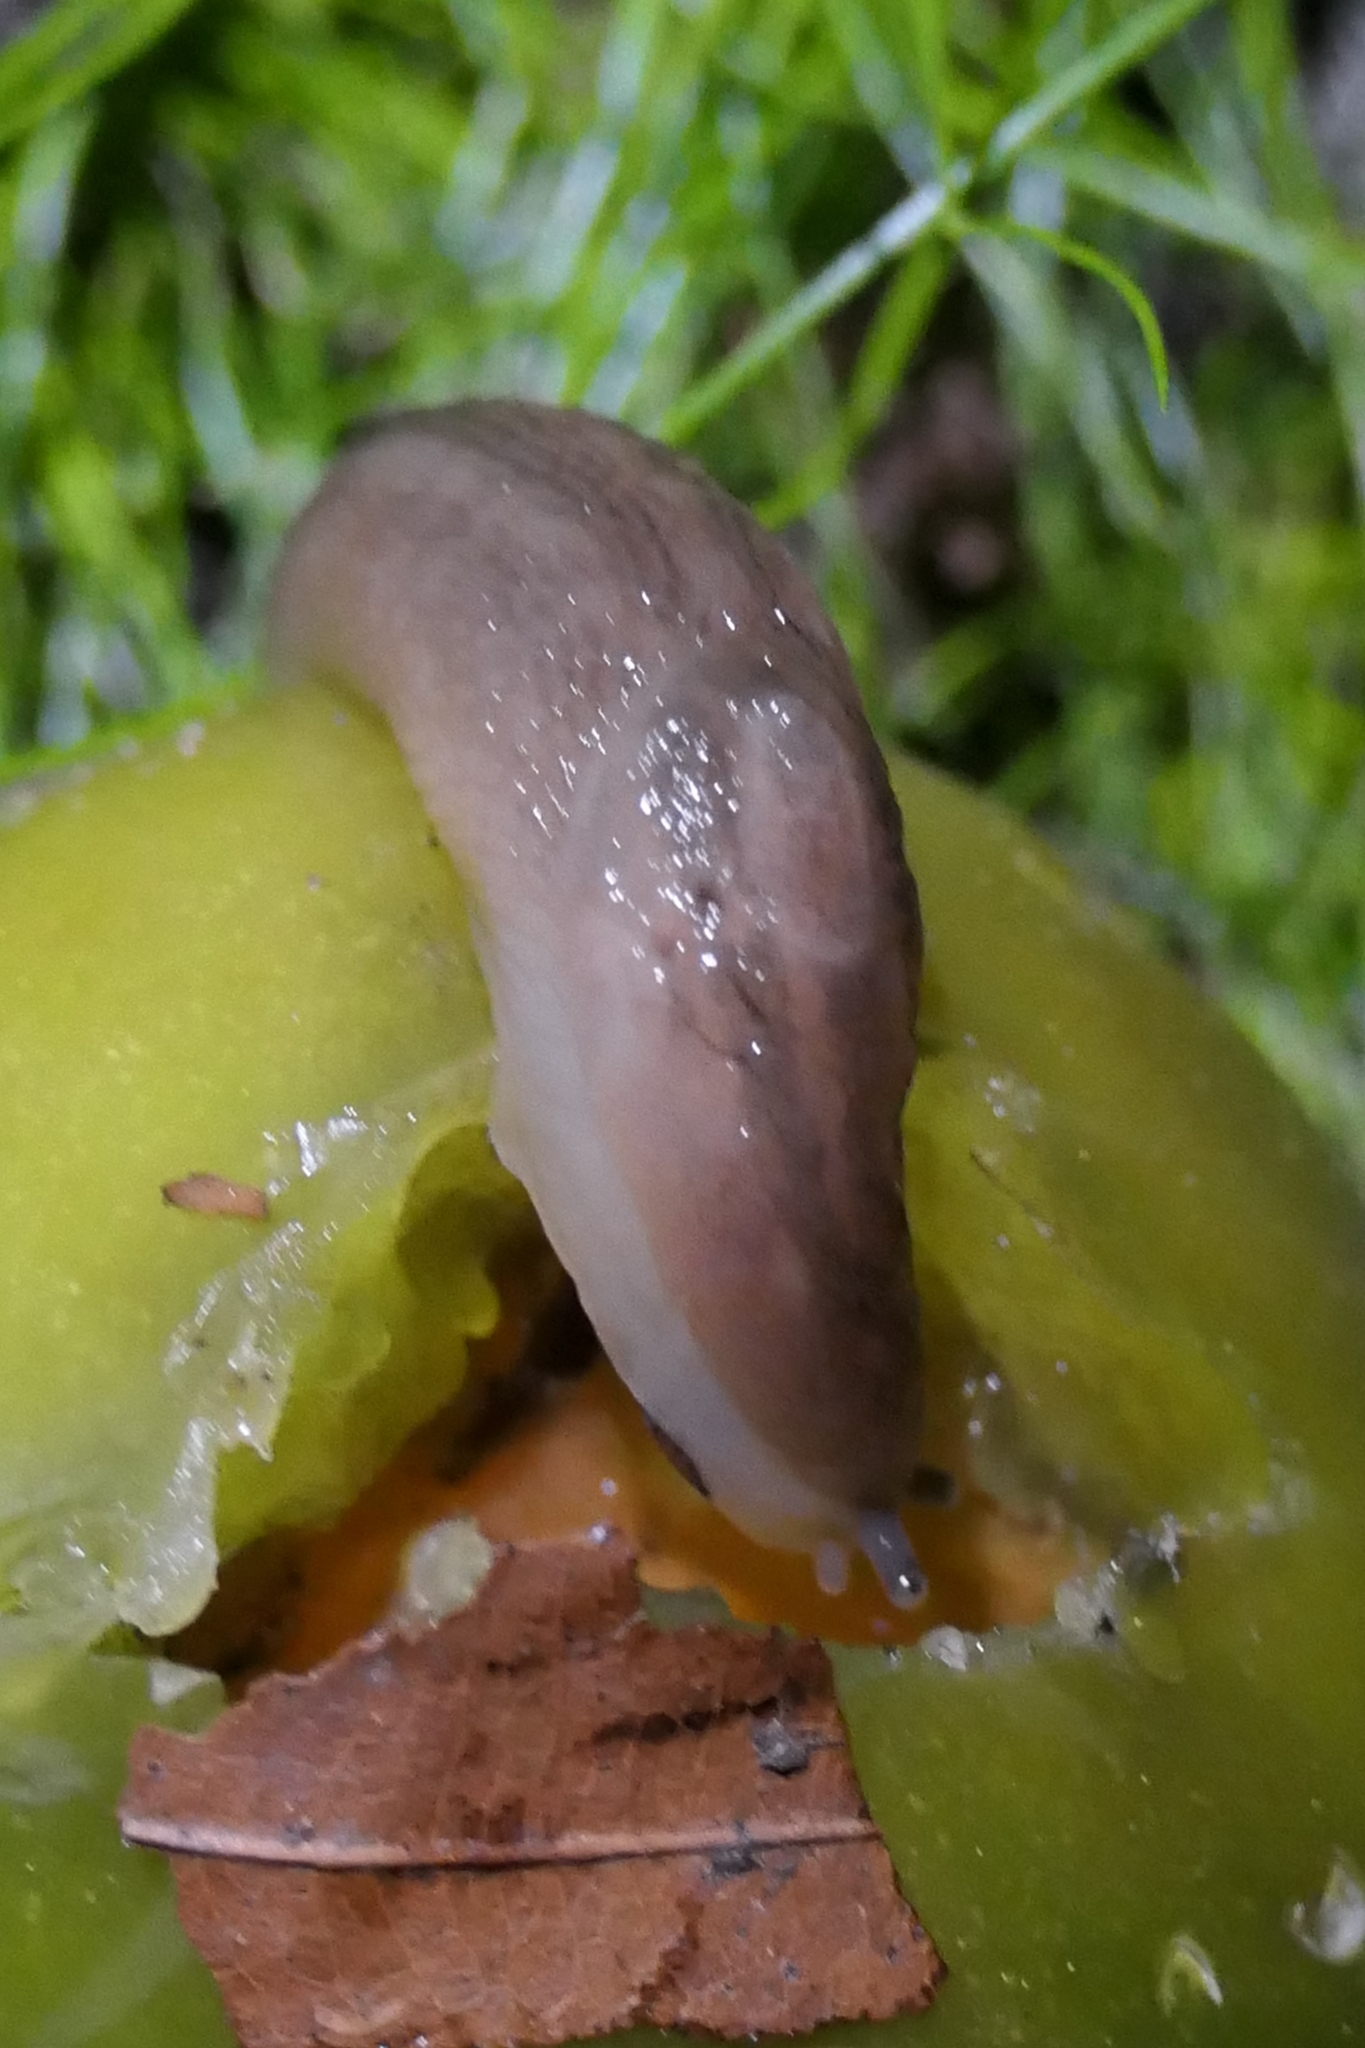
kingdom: Animalia
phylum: Mollusca
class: Gastropoda
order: Stylommatophora
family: Limacidae
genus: Ambigolimax
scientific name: Ambigolimax
